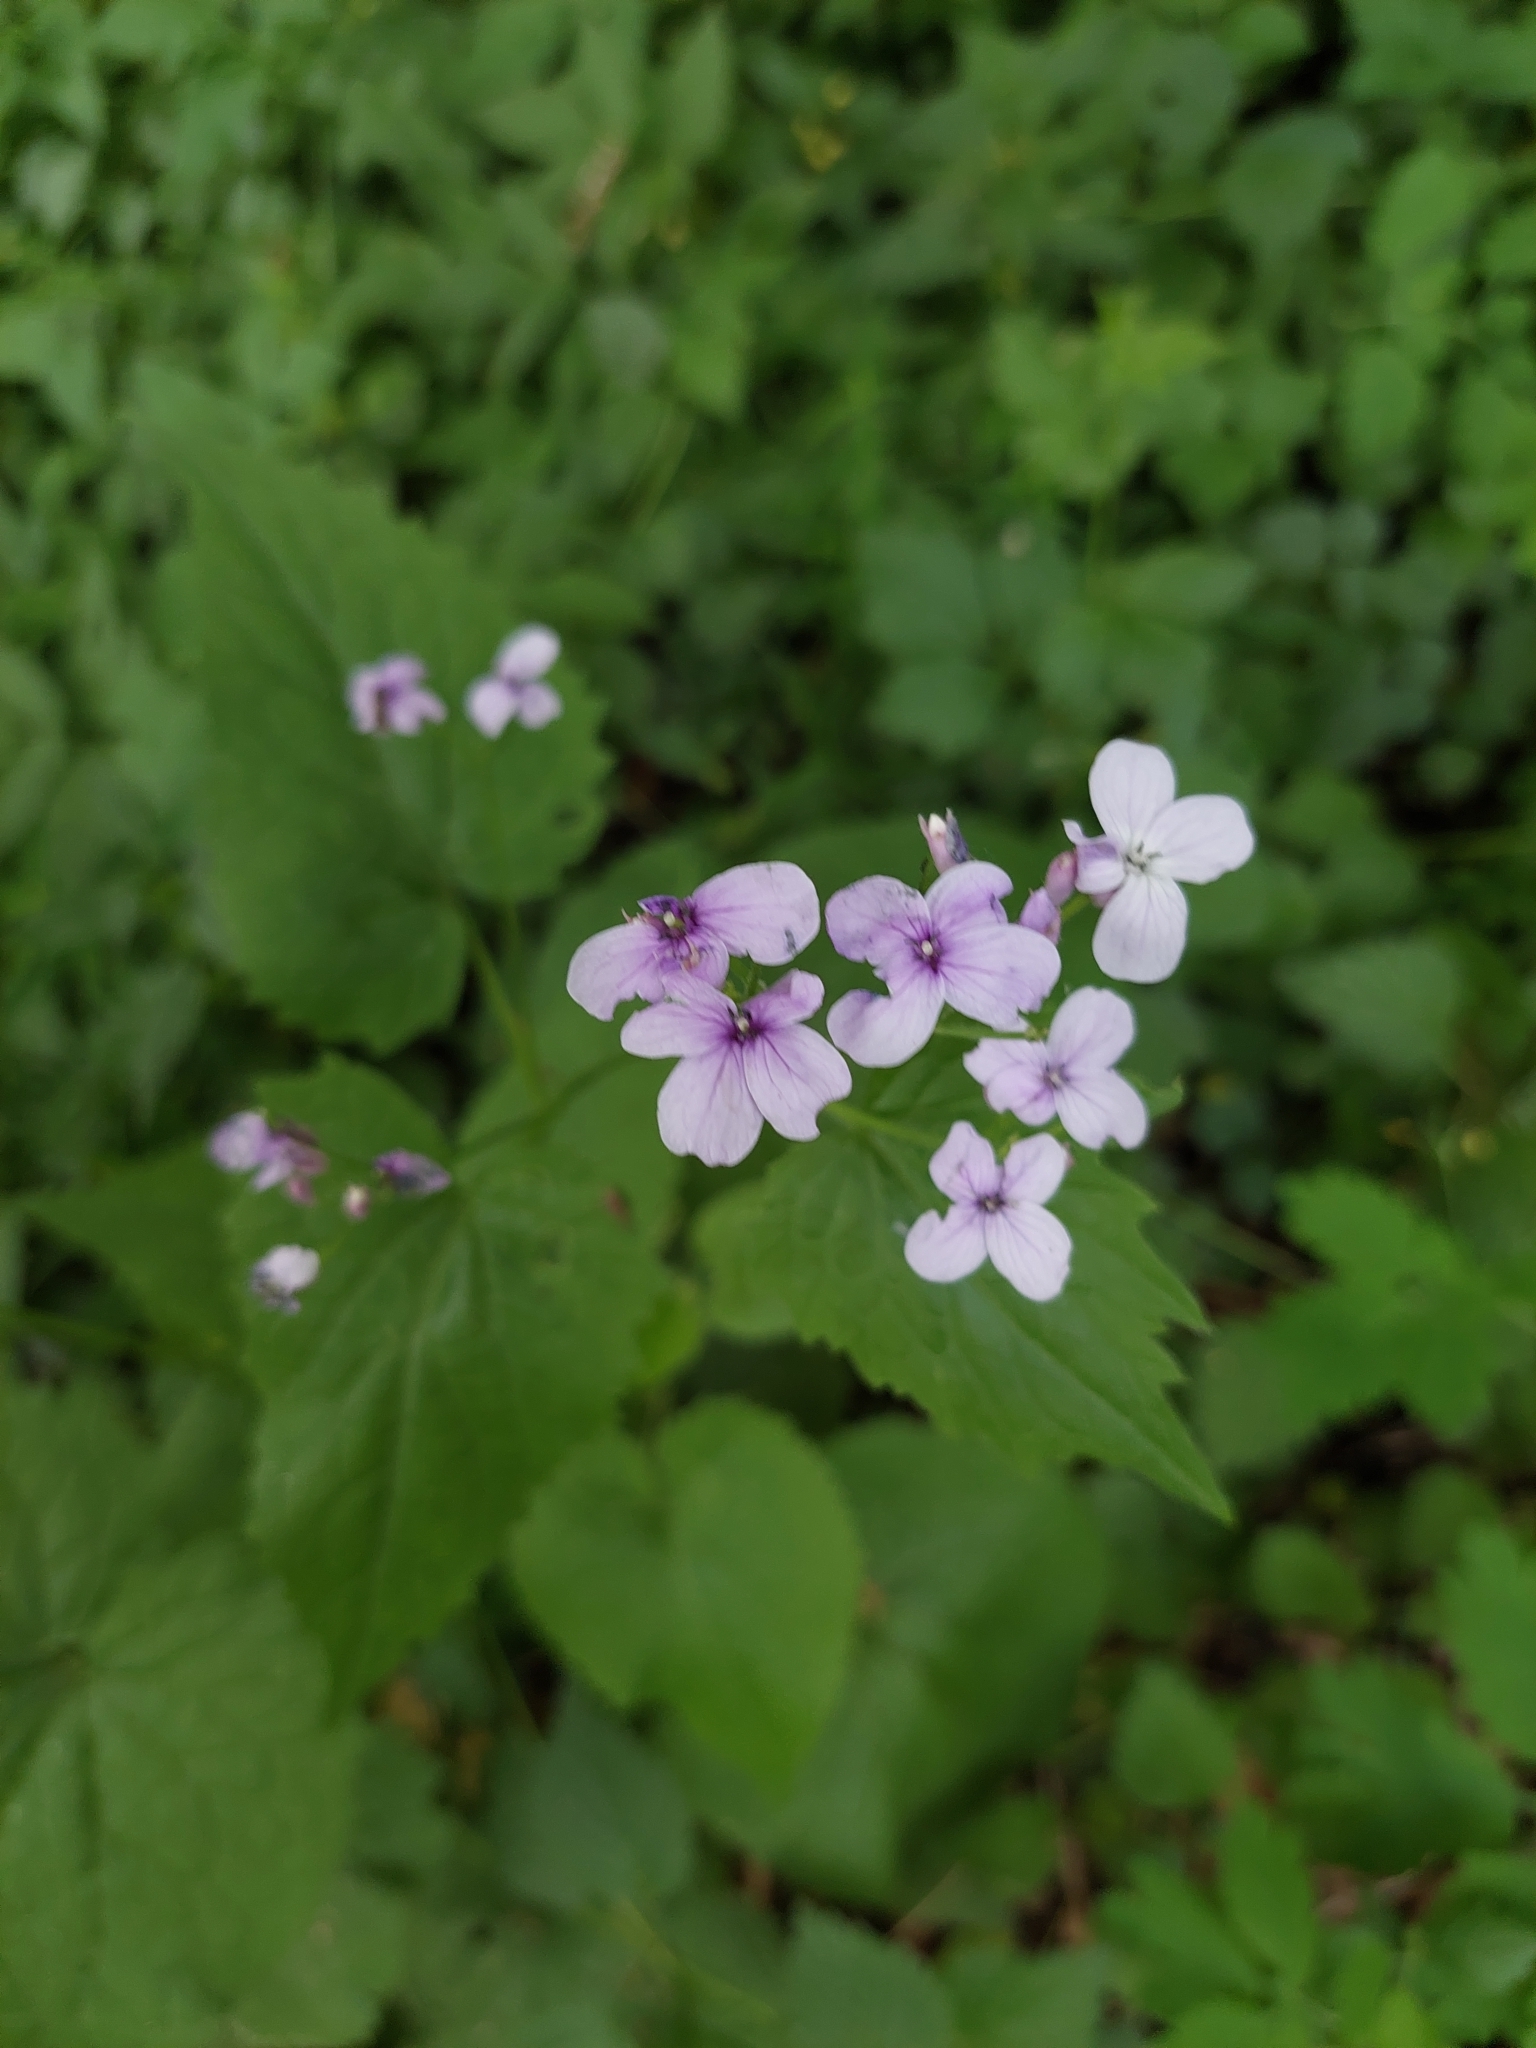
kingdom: Plantae
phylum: Tracheophyta
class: Magnoliopsida
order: Brassicales
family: Brassicaceae
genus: Lunaria
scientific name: Lunaria rediviva
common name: Perennial honesty
